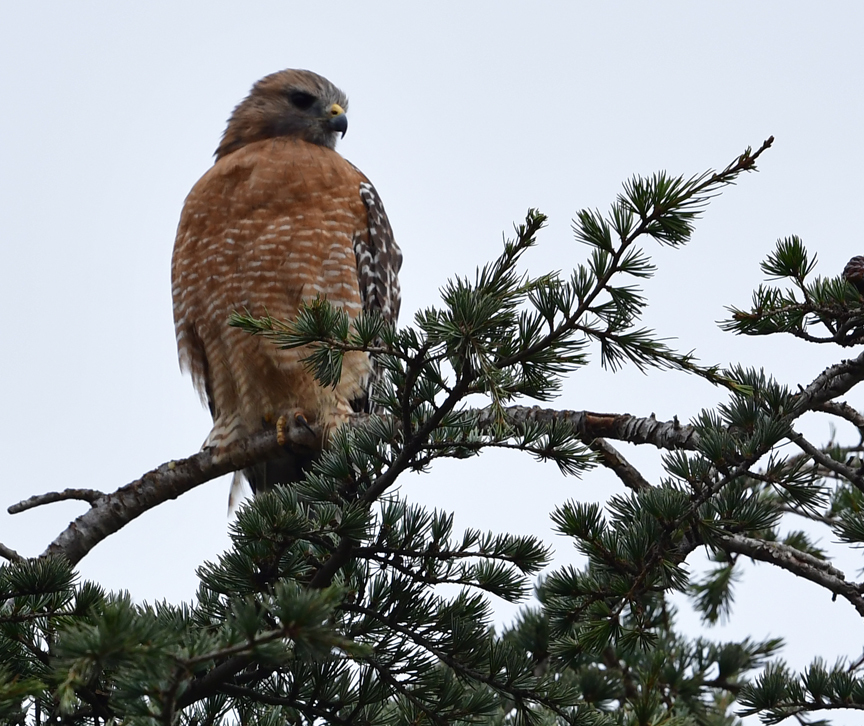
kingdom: Animalia
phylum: Chordata
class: Aves
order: Accipitriformes
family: Accipitridae
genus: Buteo
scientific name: Buteo lineatus
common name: Red-shouldered hawk
